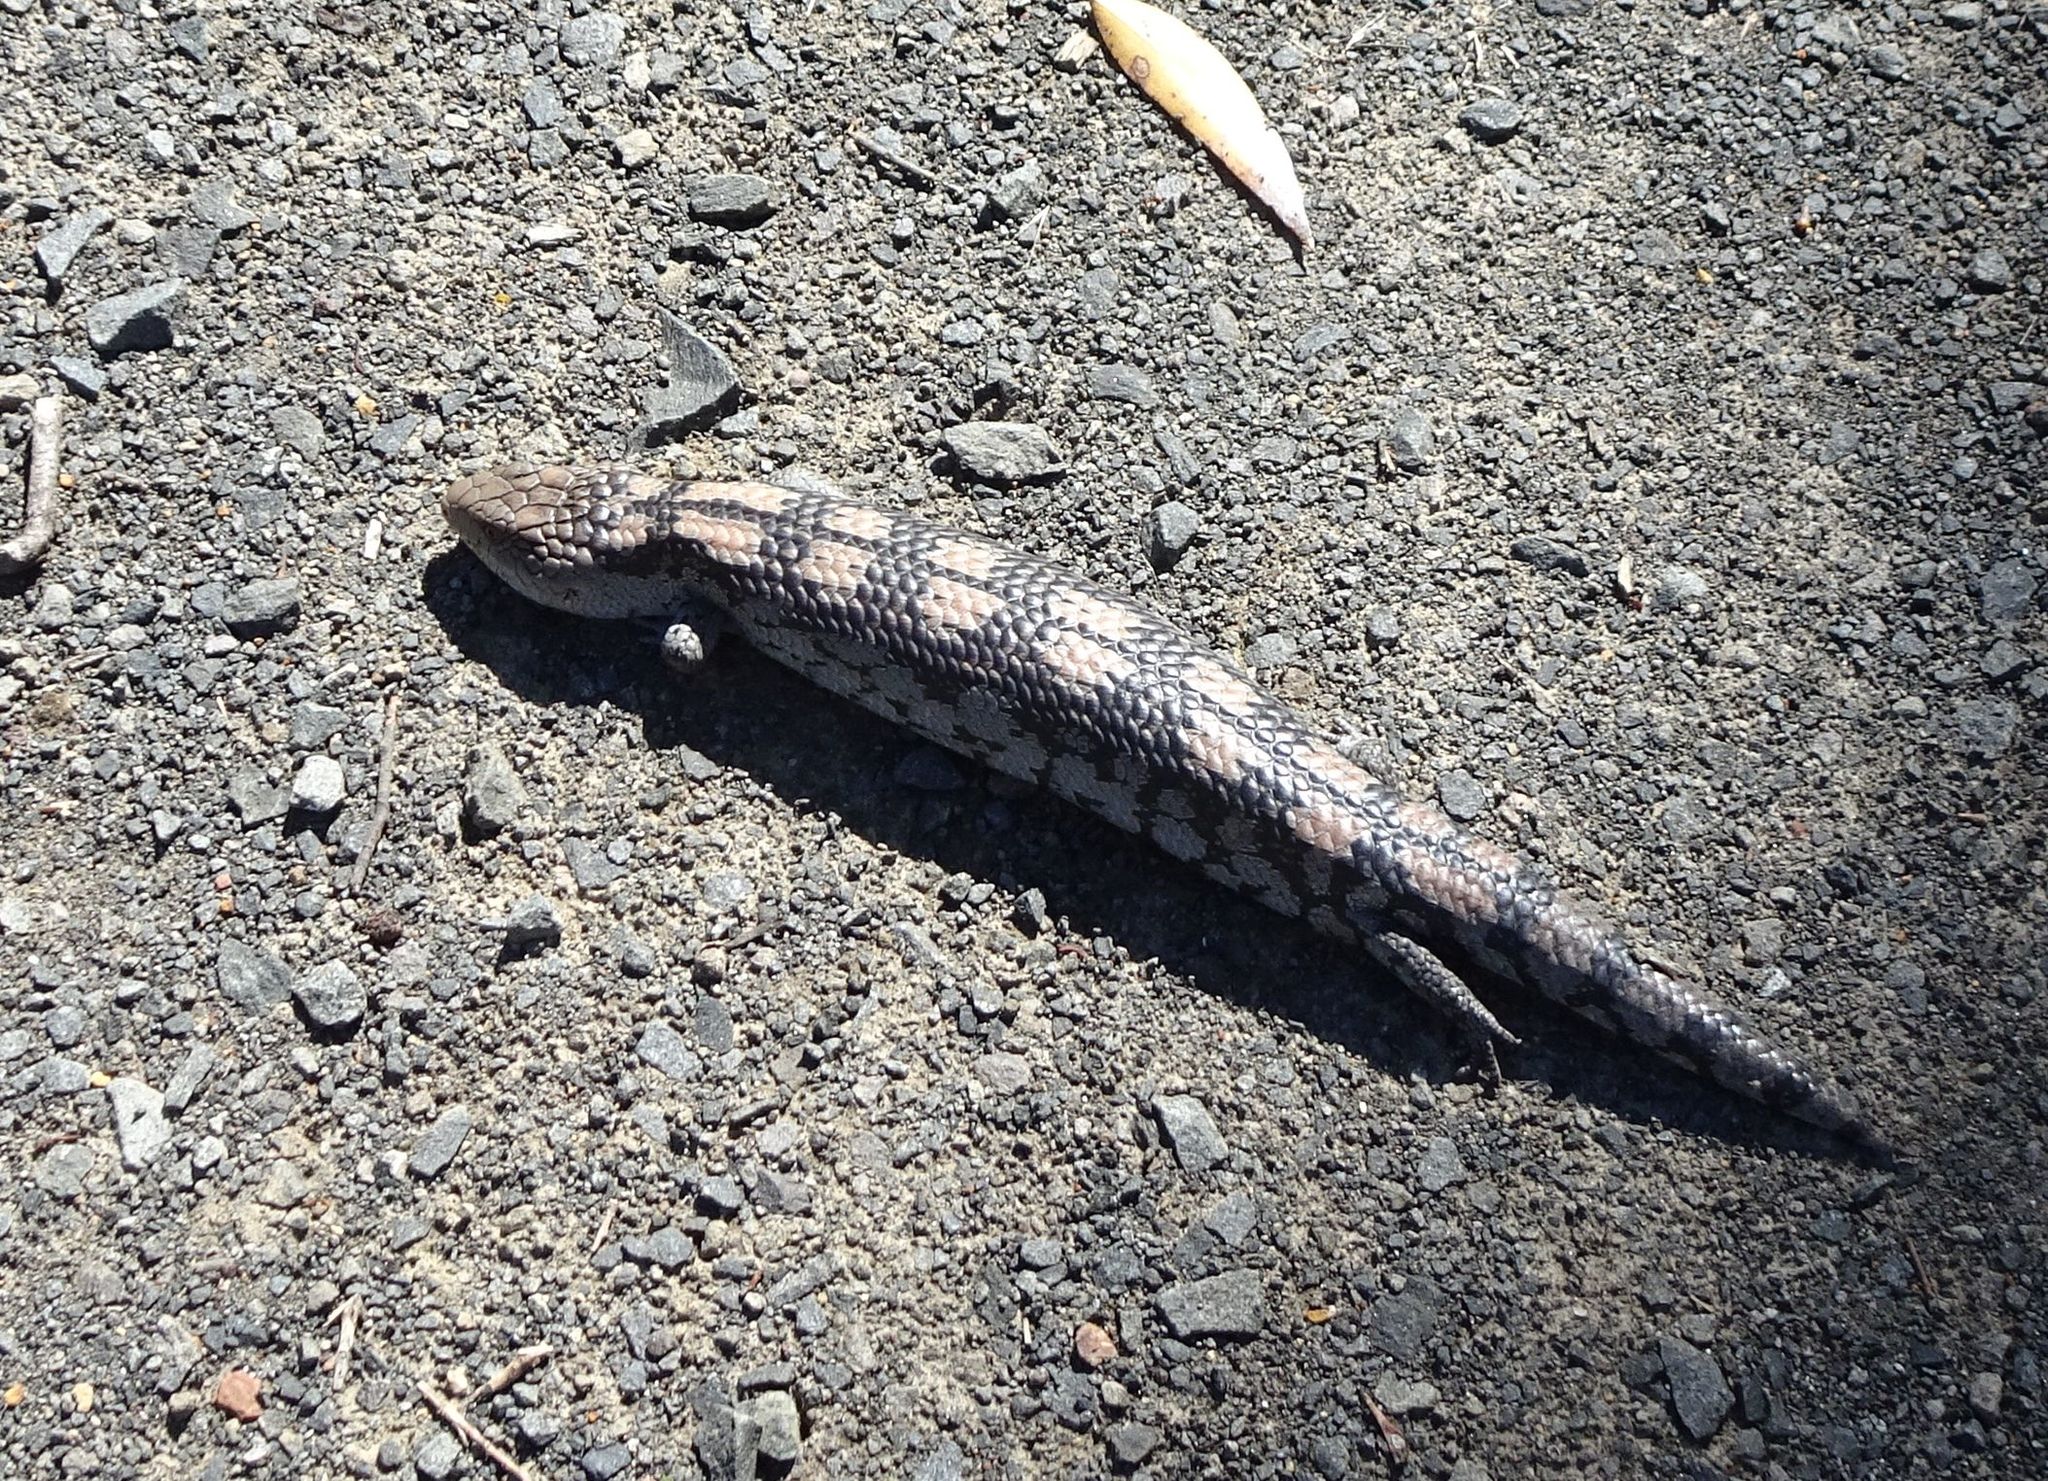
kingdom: Animalia
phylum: Chordata
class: Squamata
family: Scincidae
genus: Tiliqua
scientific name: Tiliqua nigrolutea
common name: Blotched blue-tongued lizard
